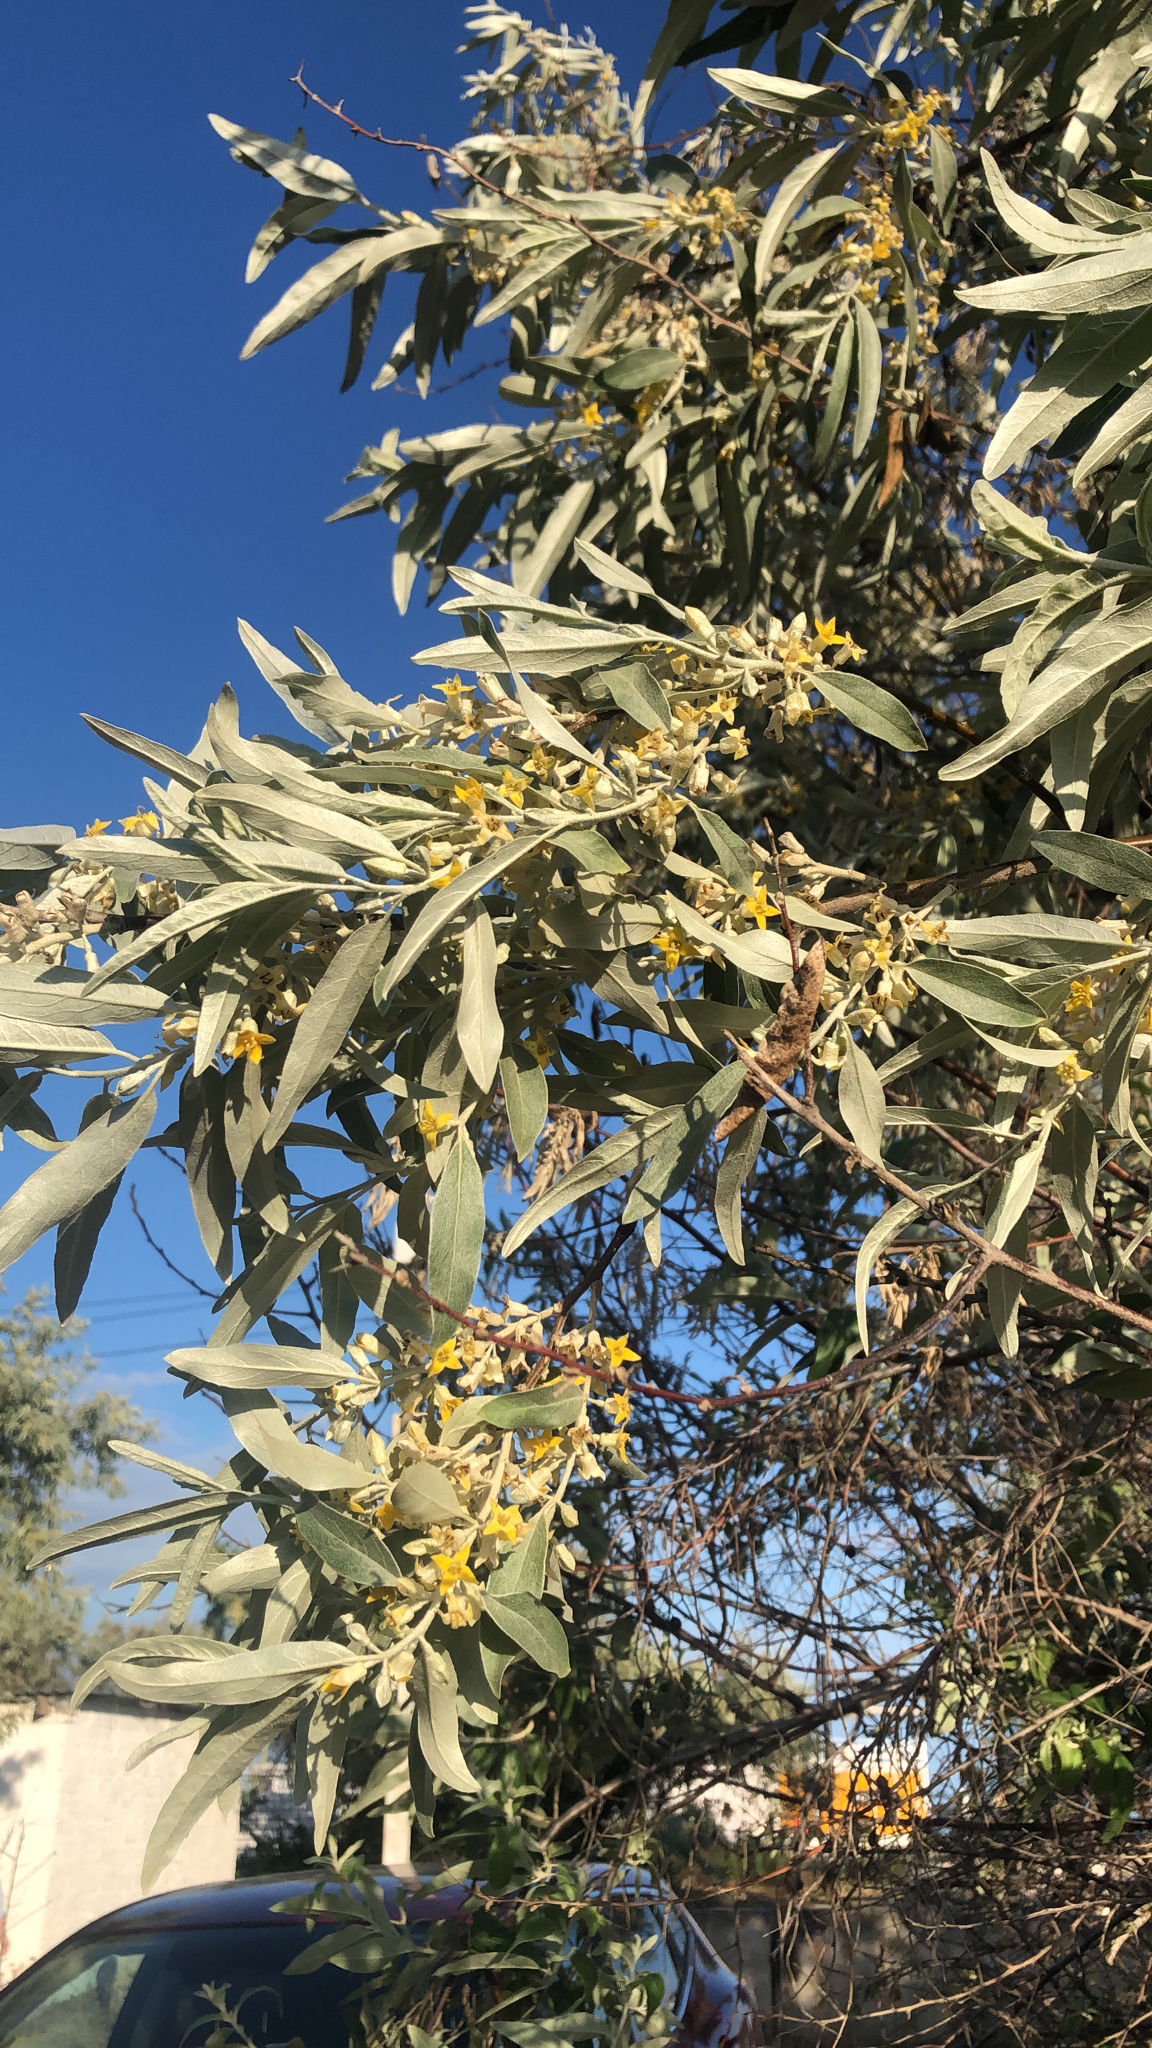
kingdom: Plantae
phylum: Tracheophyta
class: Magnoliopsida
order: Rosales
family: Elaeagnaceae
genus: Elaeagnus
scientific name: Elaeagnus angustifolia
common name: Russian olive
